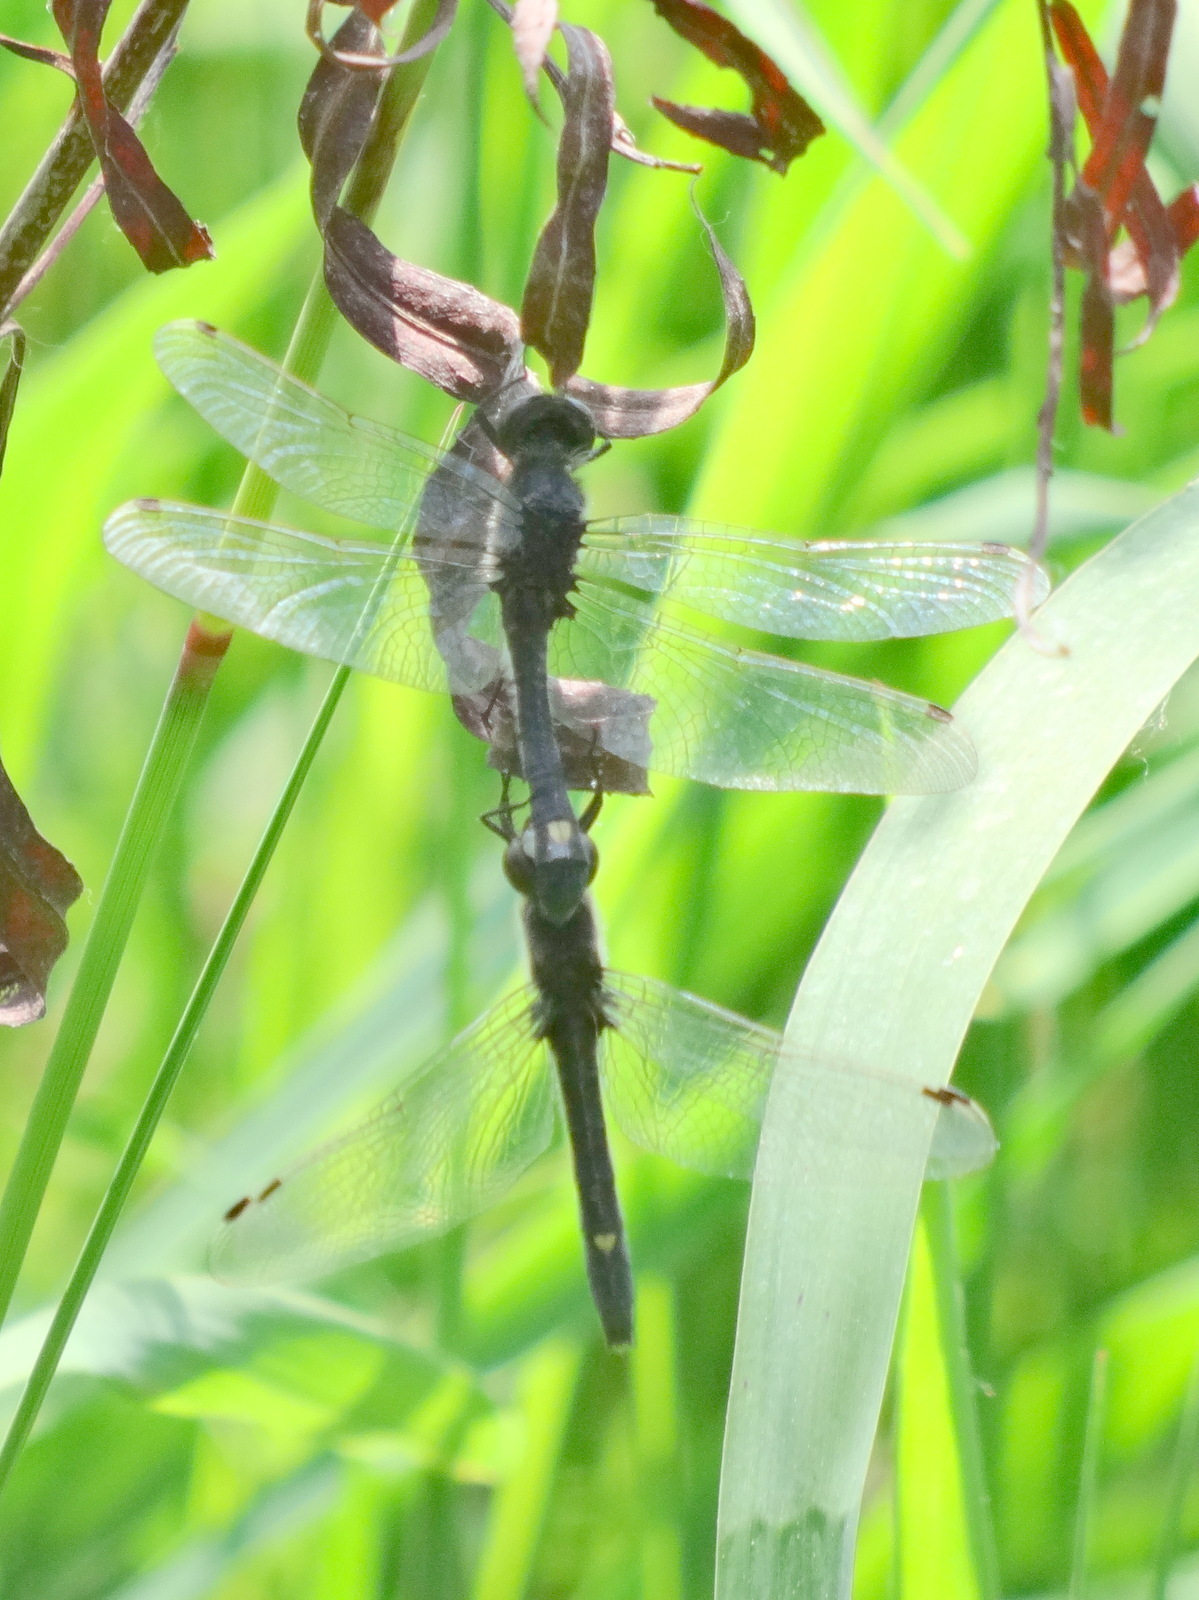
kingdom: Animalia
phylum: Arthropoda
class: Insecta
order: Odonata
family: Libellulidae
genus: Leucorrhinia
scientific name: Leucorrhinia intacta
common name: Dot-tailed whiteface
